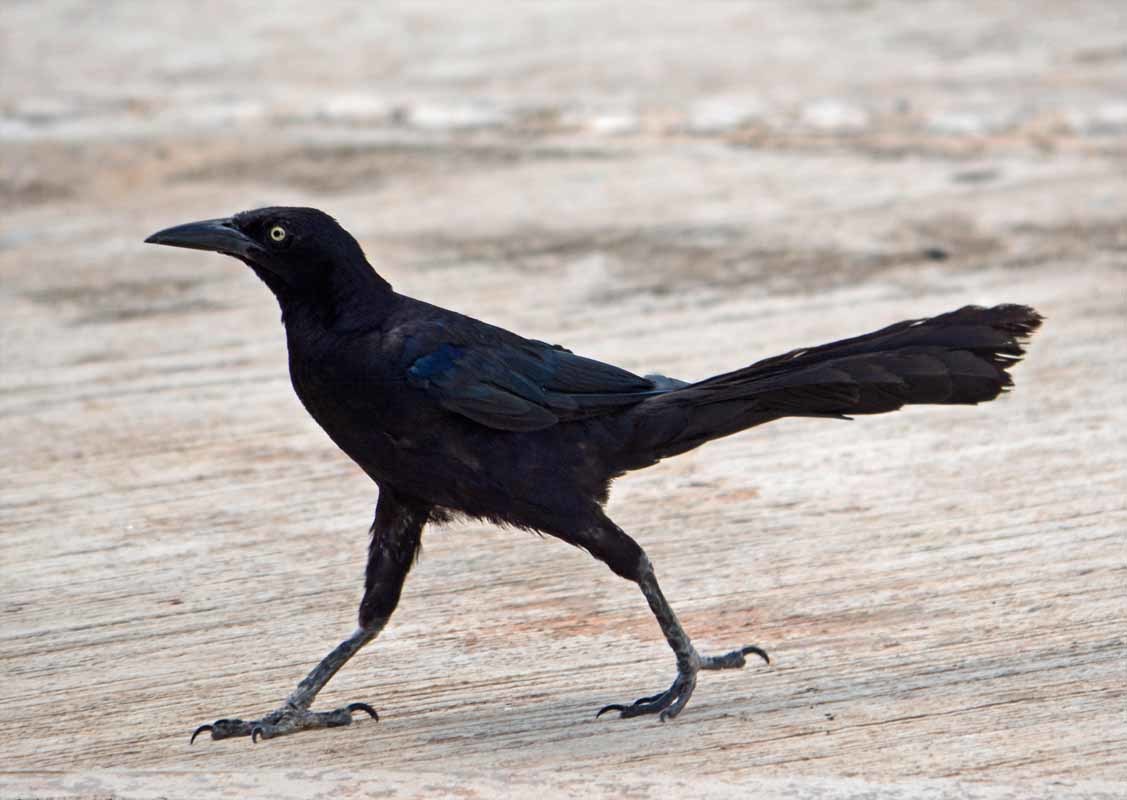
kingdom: Animalia
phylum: Chordata
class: Aves
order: Passeriformes
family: Icteridae
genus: Quiscalus
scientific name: Quiscalus mexicanus
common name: Great-tailed grackle
